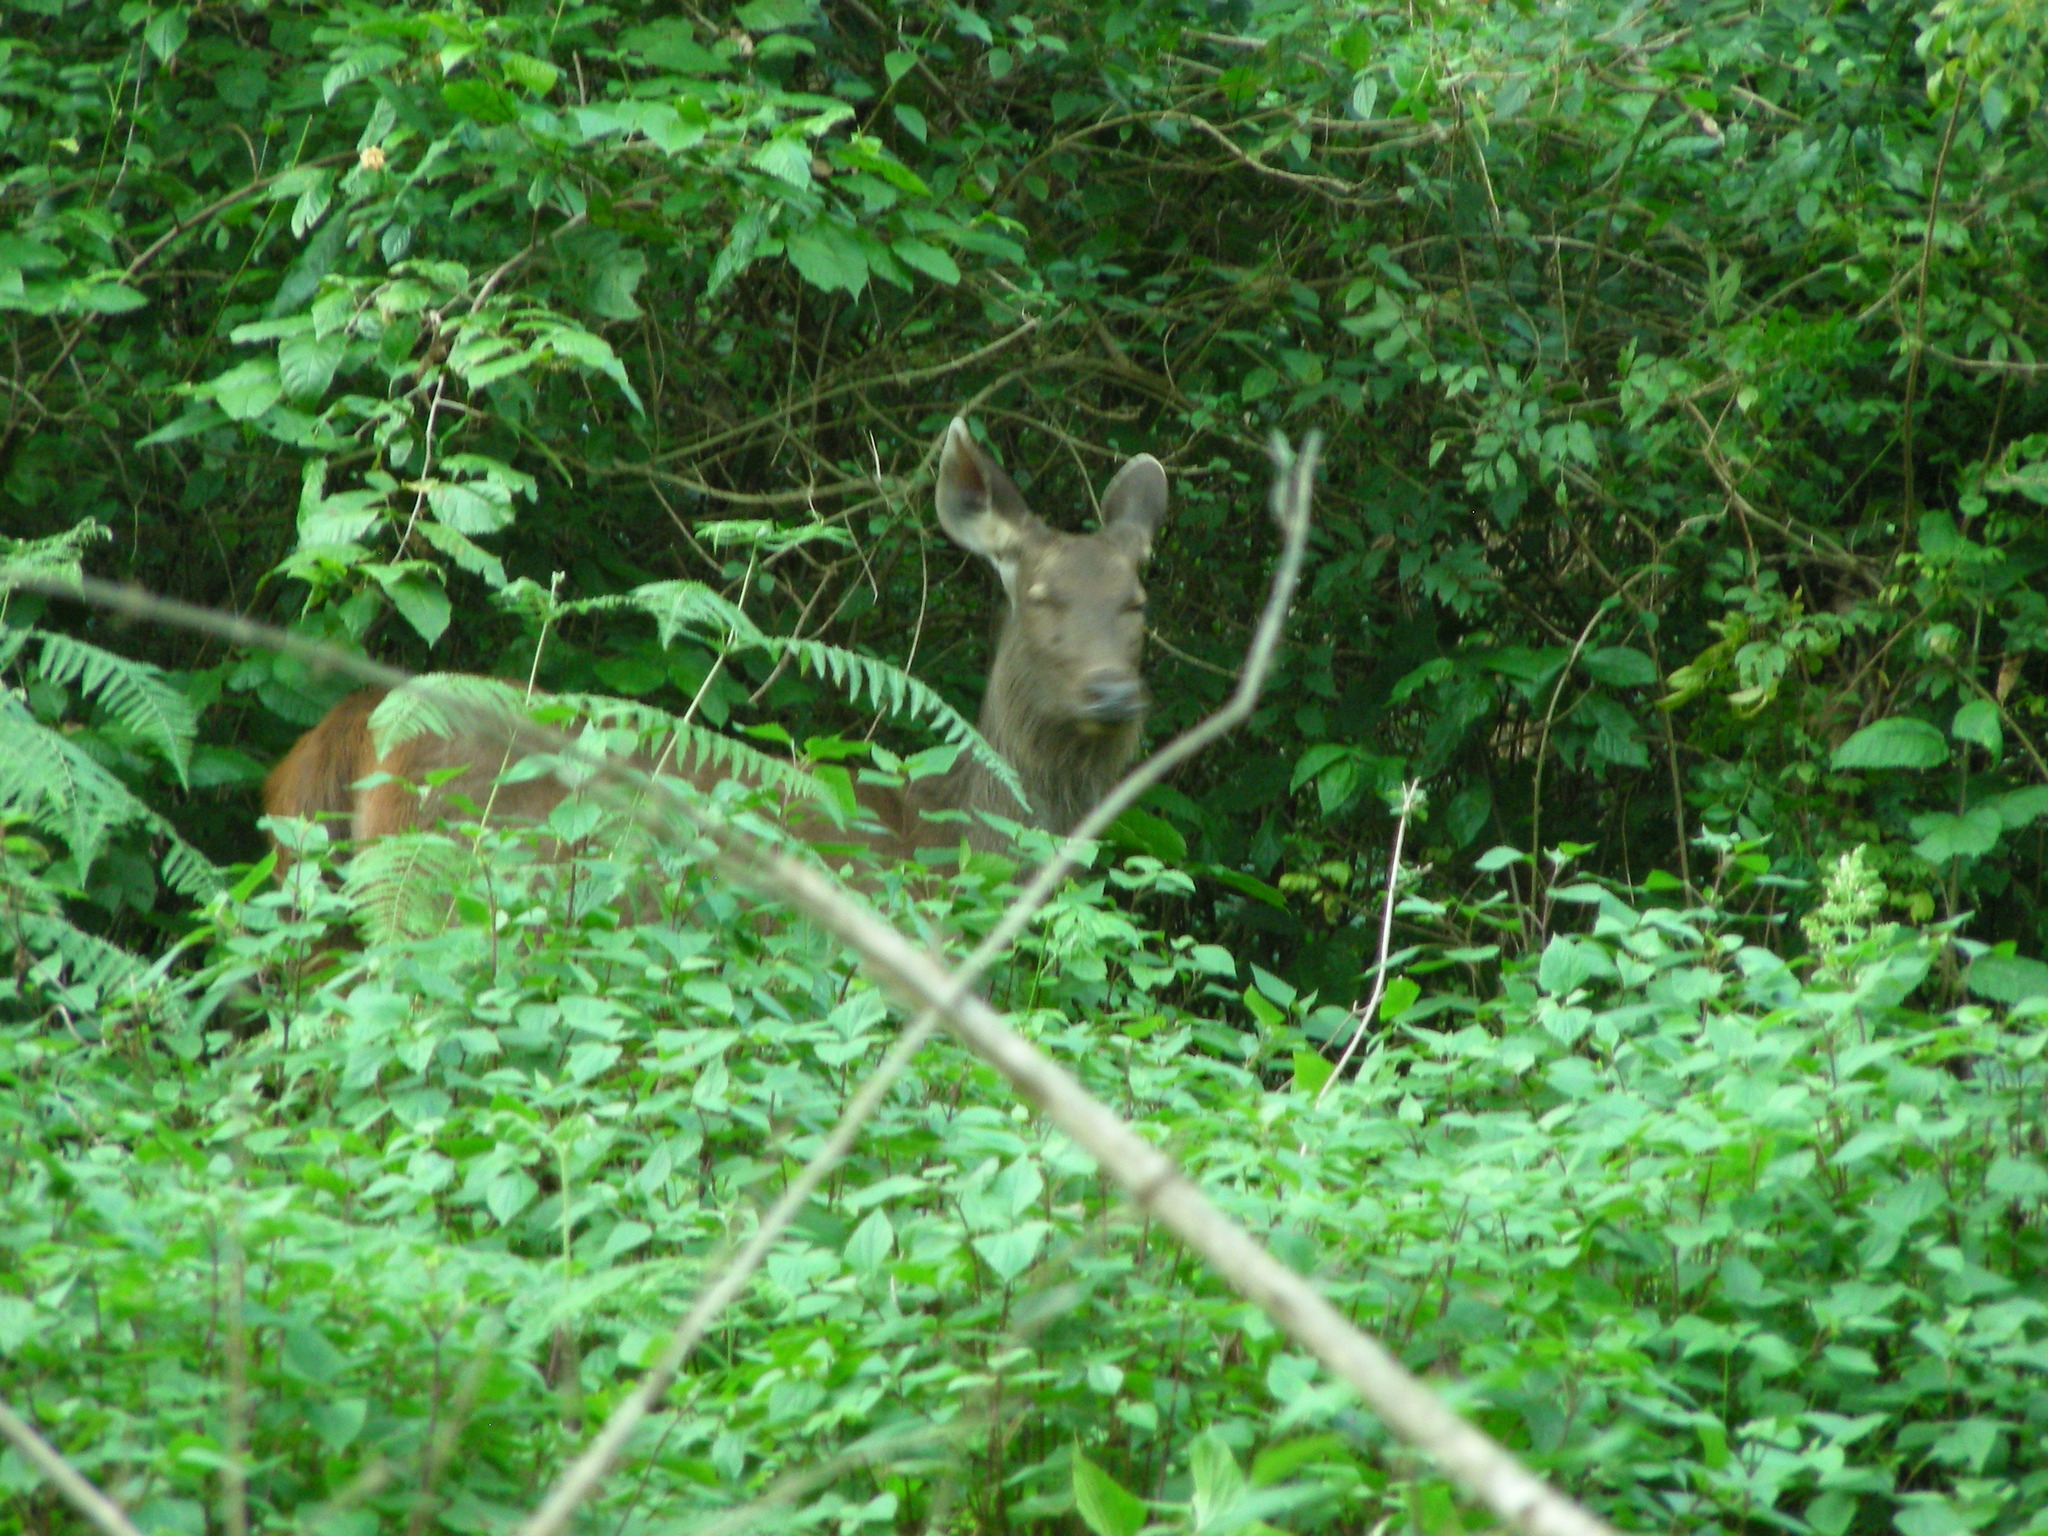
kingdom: Animalia
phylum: Chordata
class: Mammalia
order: Artiodactyla
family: Cervidae
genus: Rusa
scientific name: Rusa unicolor
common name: Sambar
